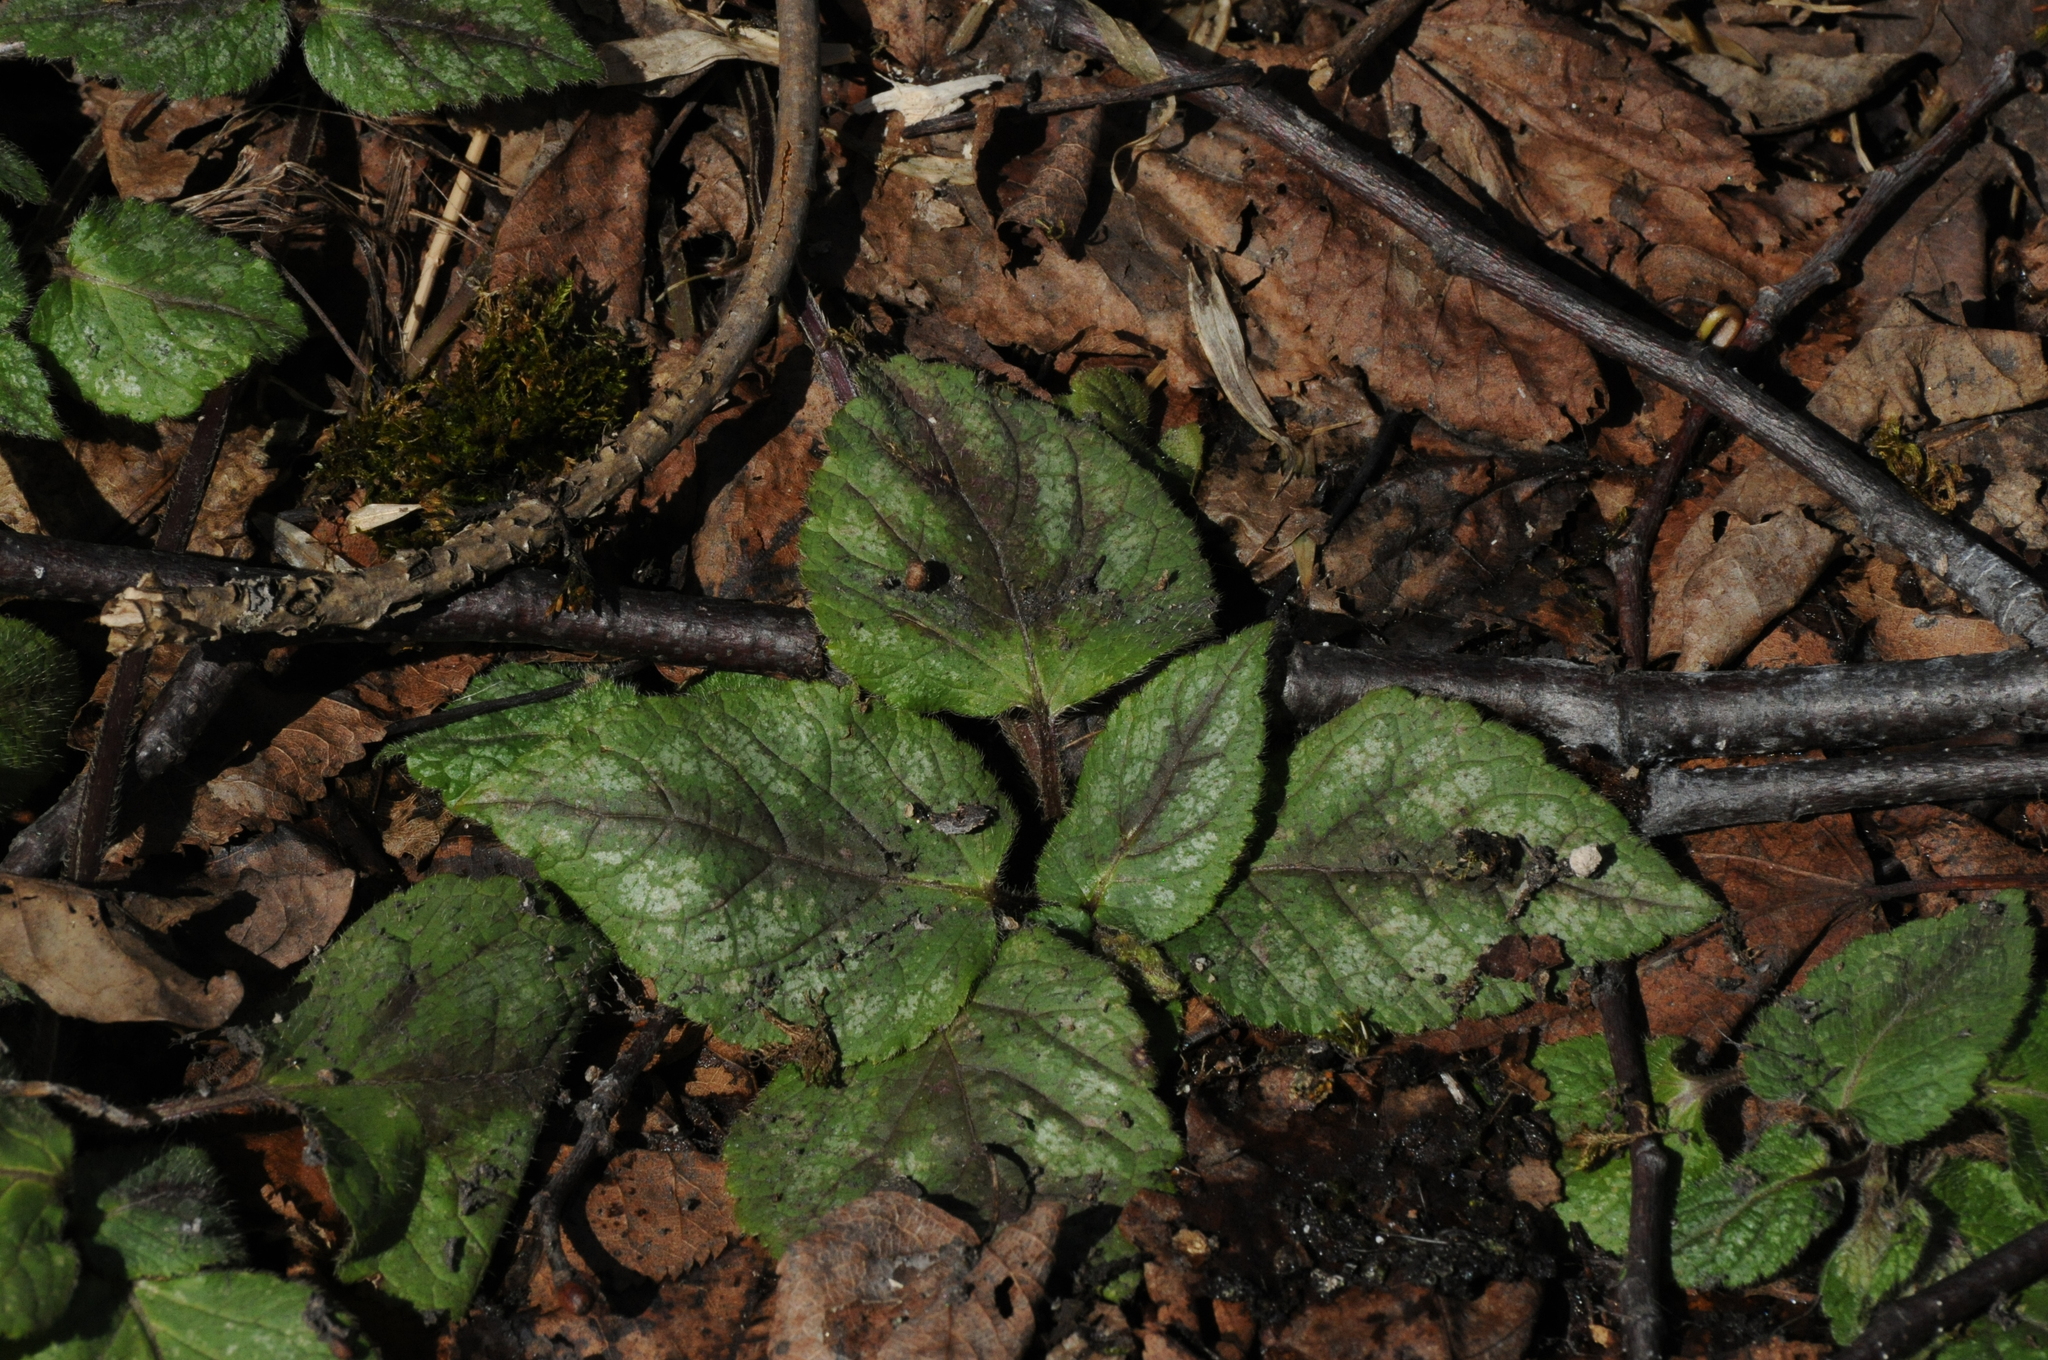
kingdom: Plantae
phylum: Tracheophyta
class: Magnoliopsida
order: Lamiales
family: Lamiaceae
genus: Lamium
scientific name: Lamium galeobdolon
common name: Yellow archangel
